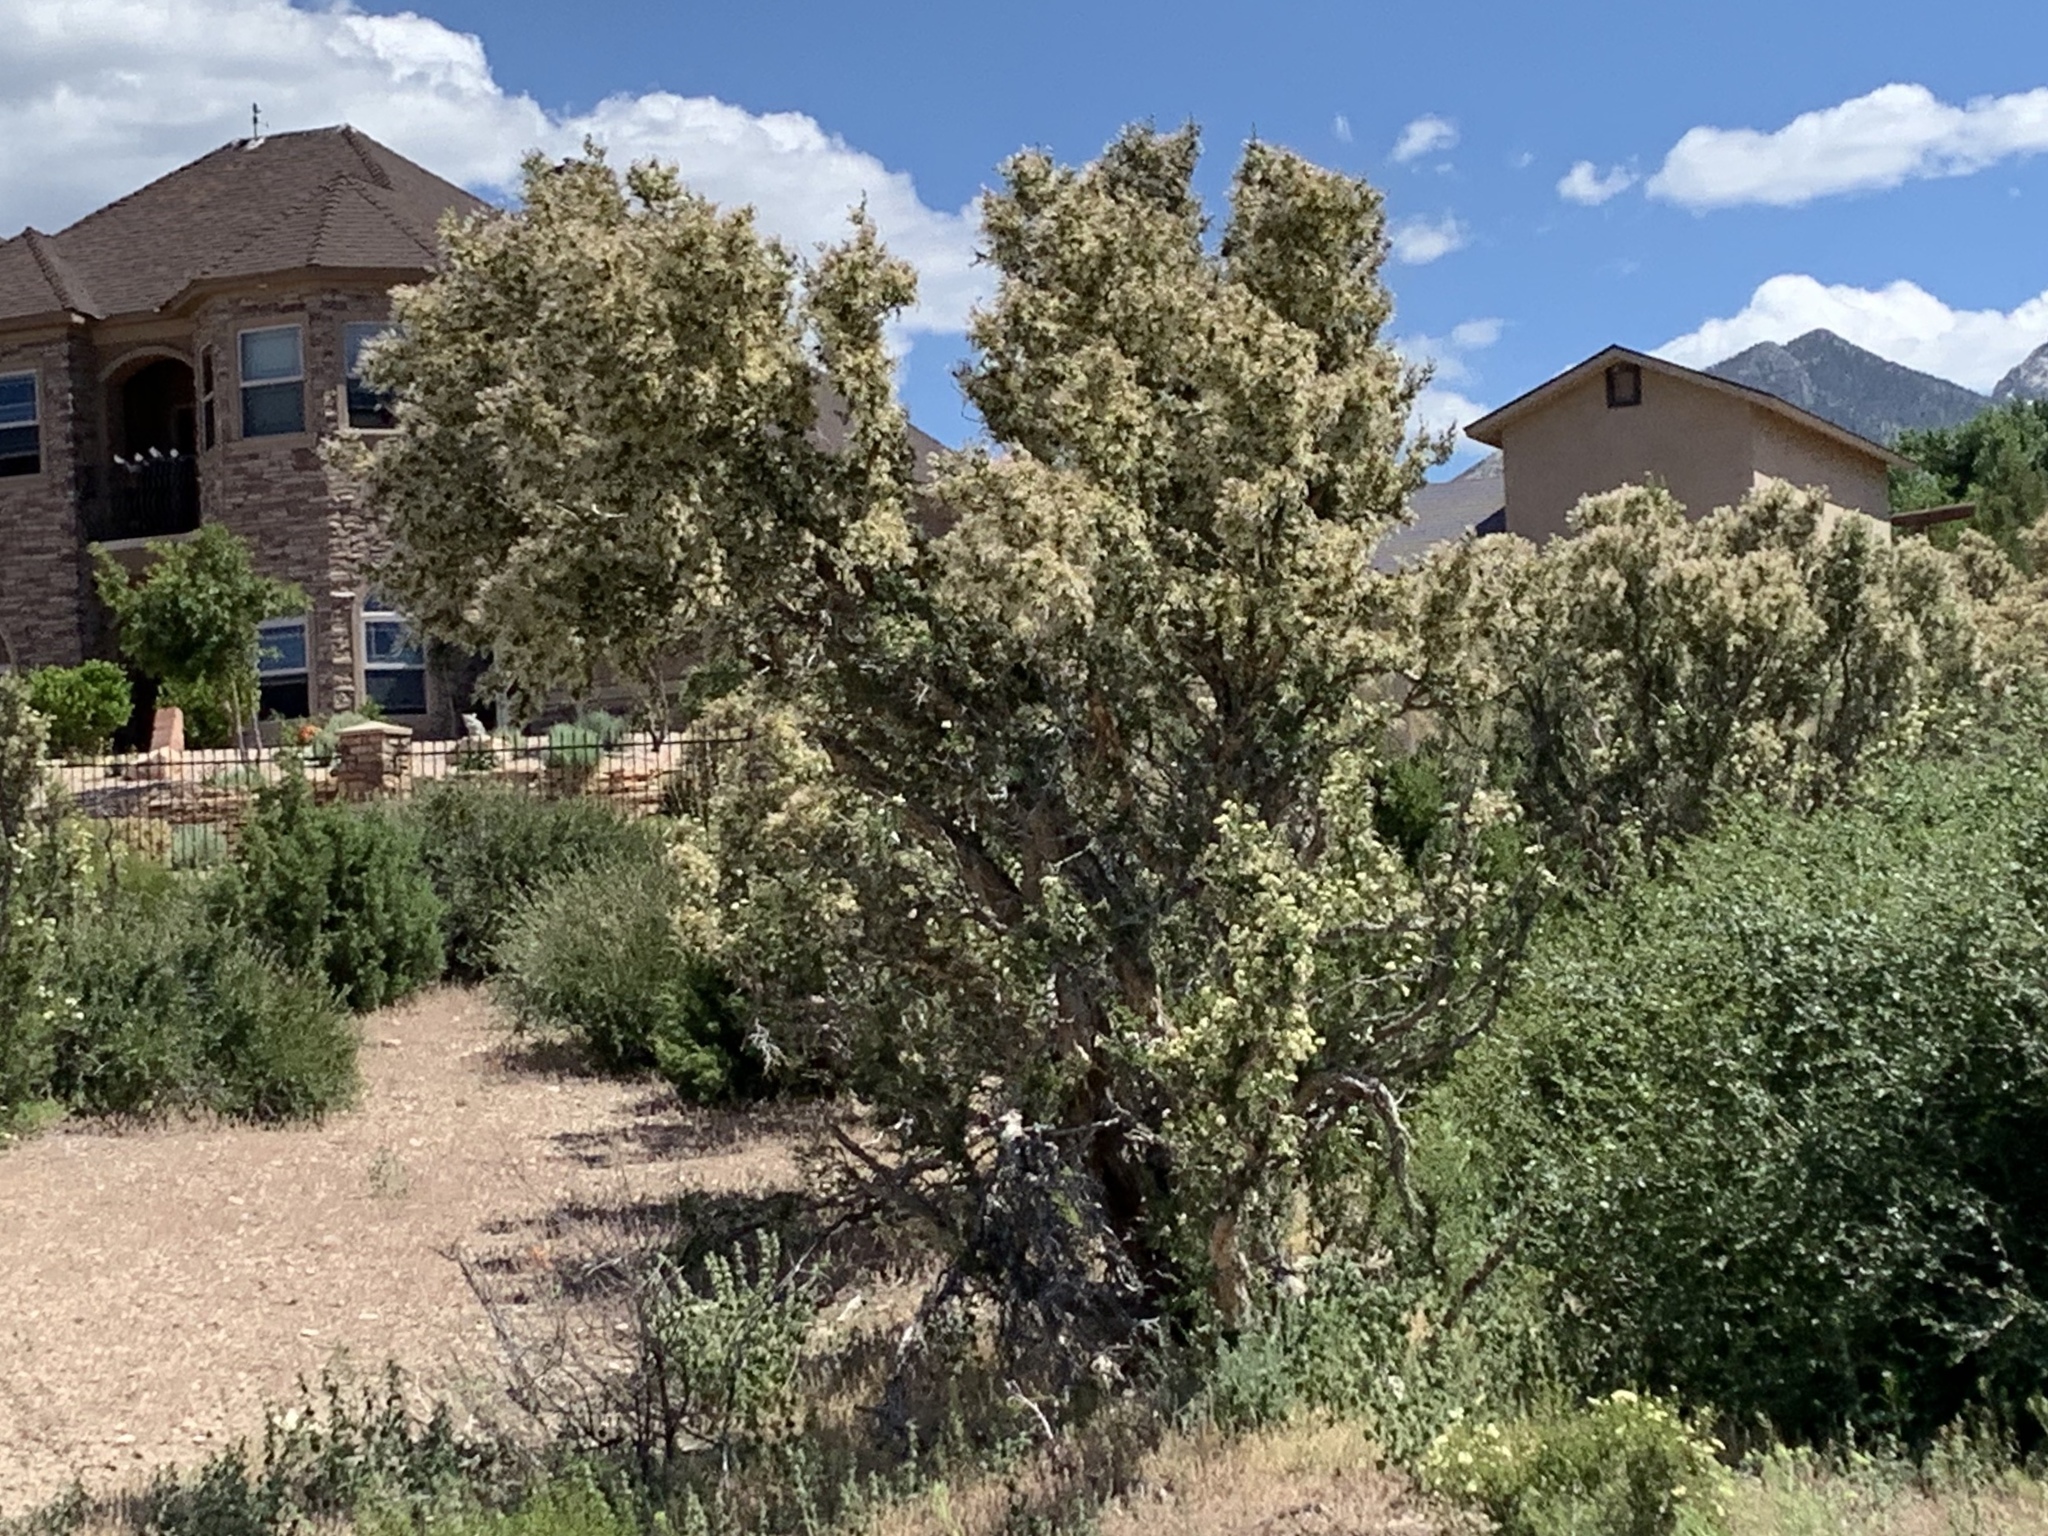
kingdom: Plantae
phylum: Tracheophyta
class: Magnoliopsida
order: Rosales
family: Rosaceae
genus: Purshia
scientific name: Purshia stansburiana
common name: Stansbury's cliffrose
